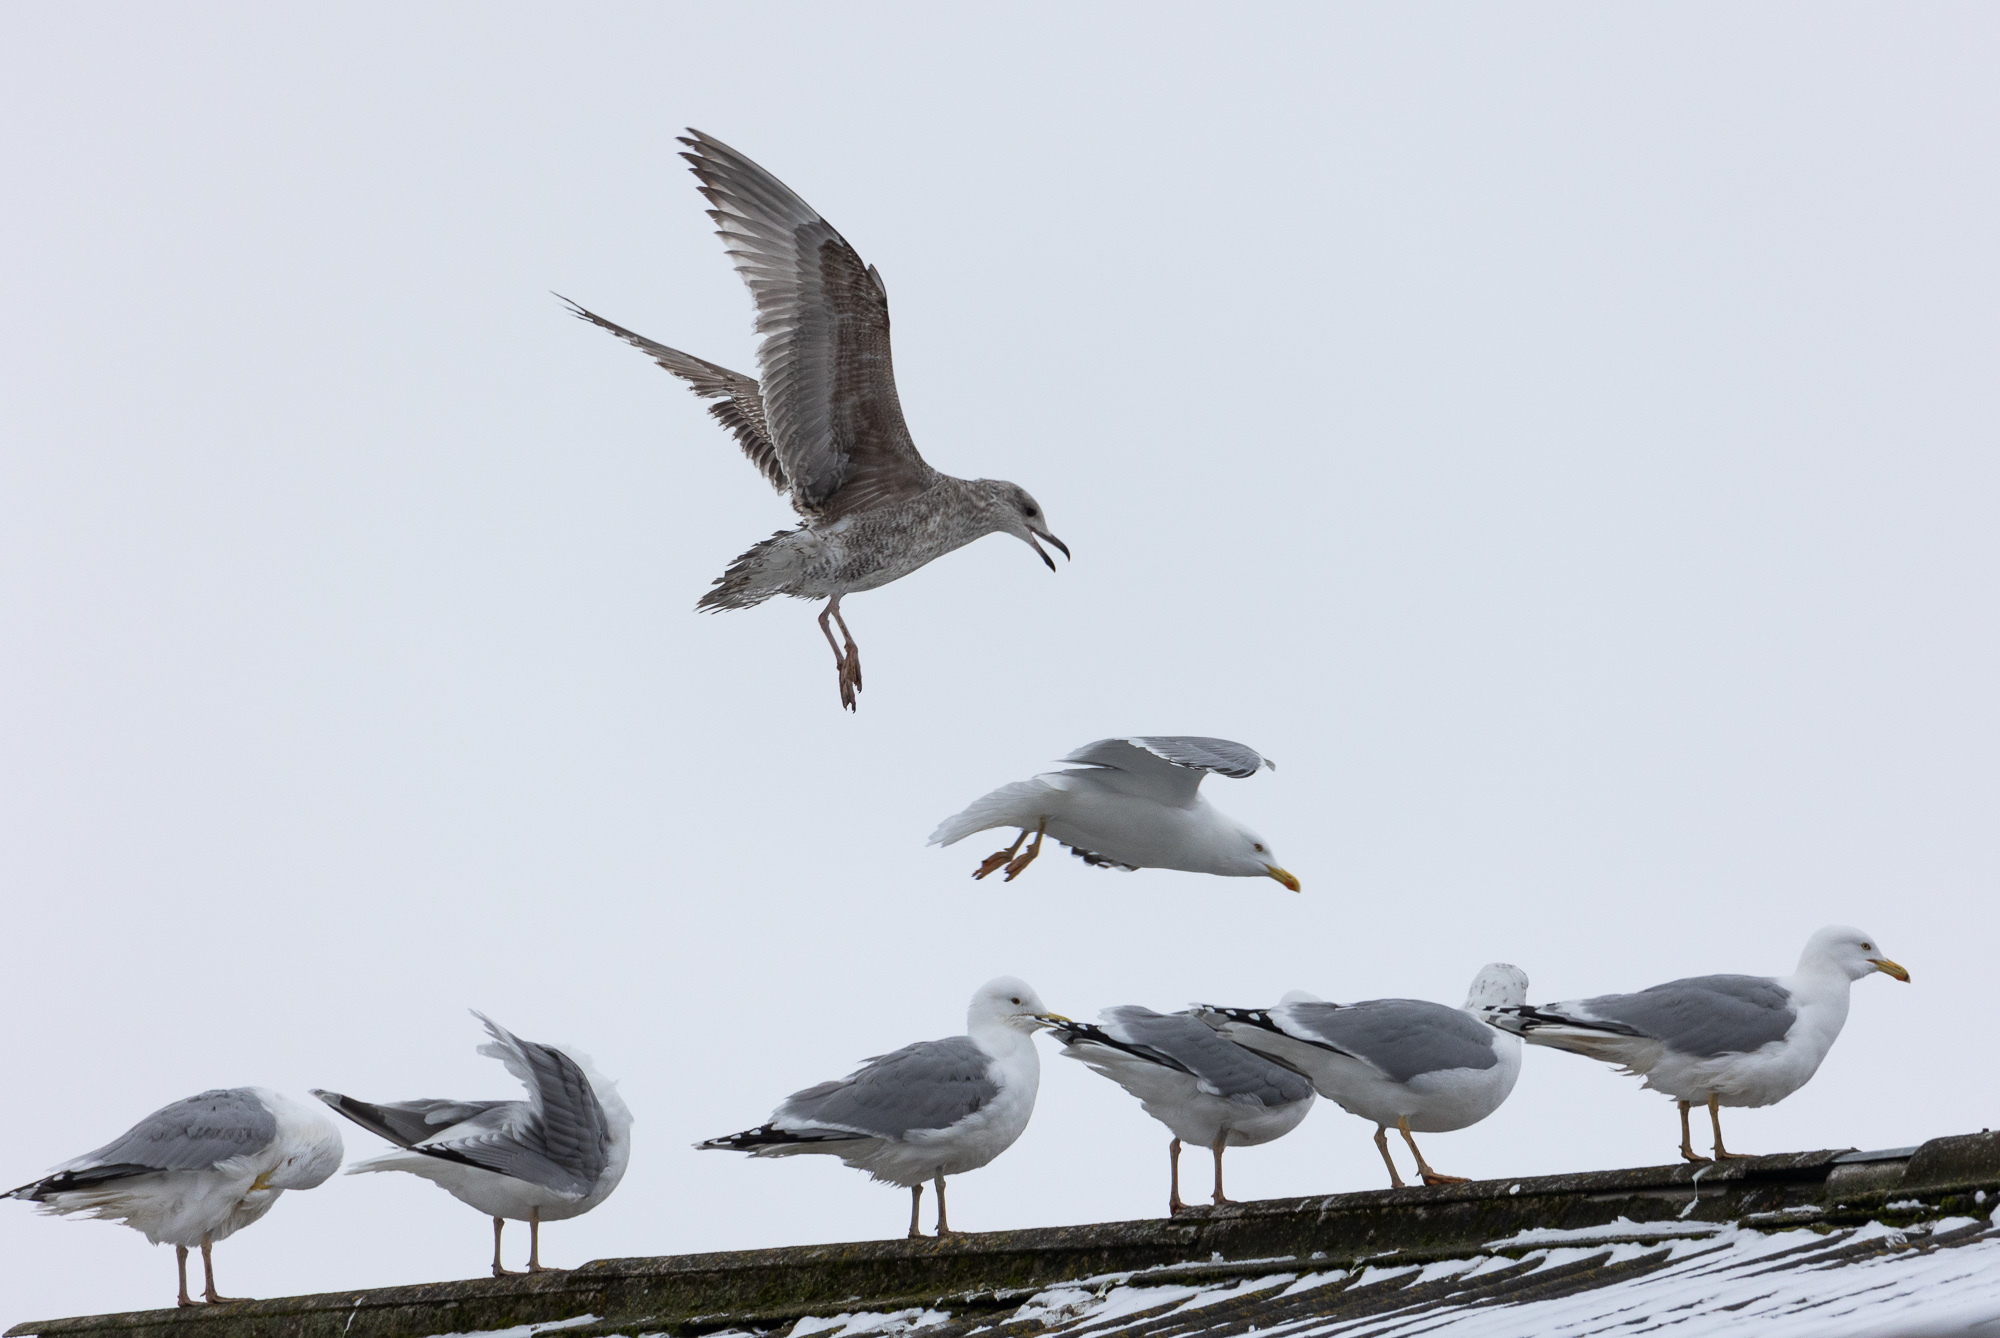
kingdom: Animalia
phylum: Chordata
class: Aves
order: Charadriiformes
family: Laridae
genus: Larus
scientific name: Larus argentatus
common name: Herring gull
